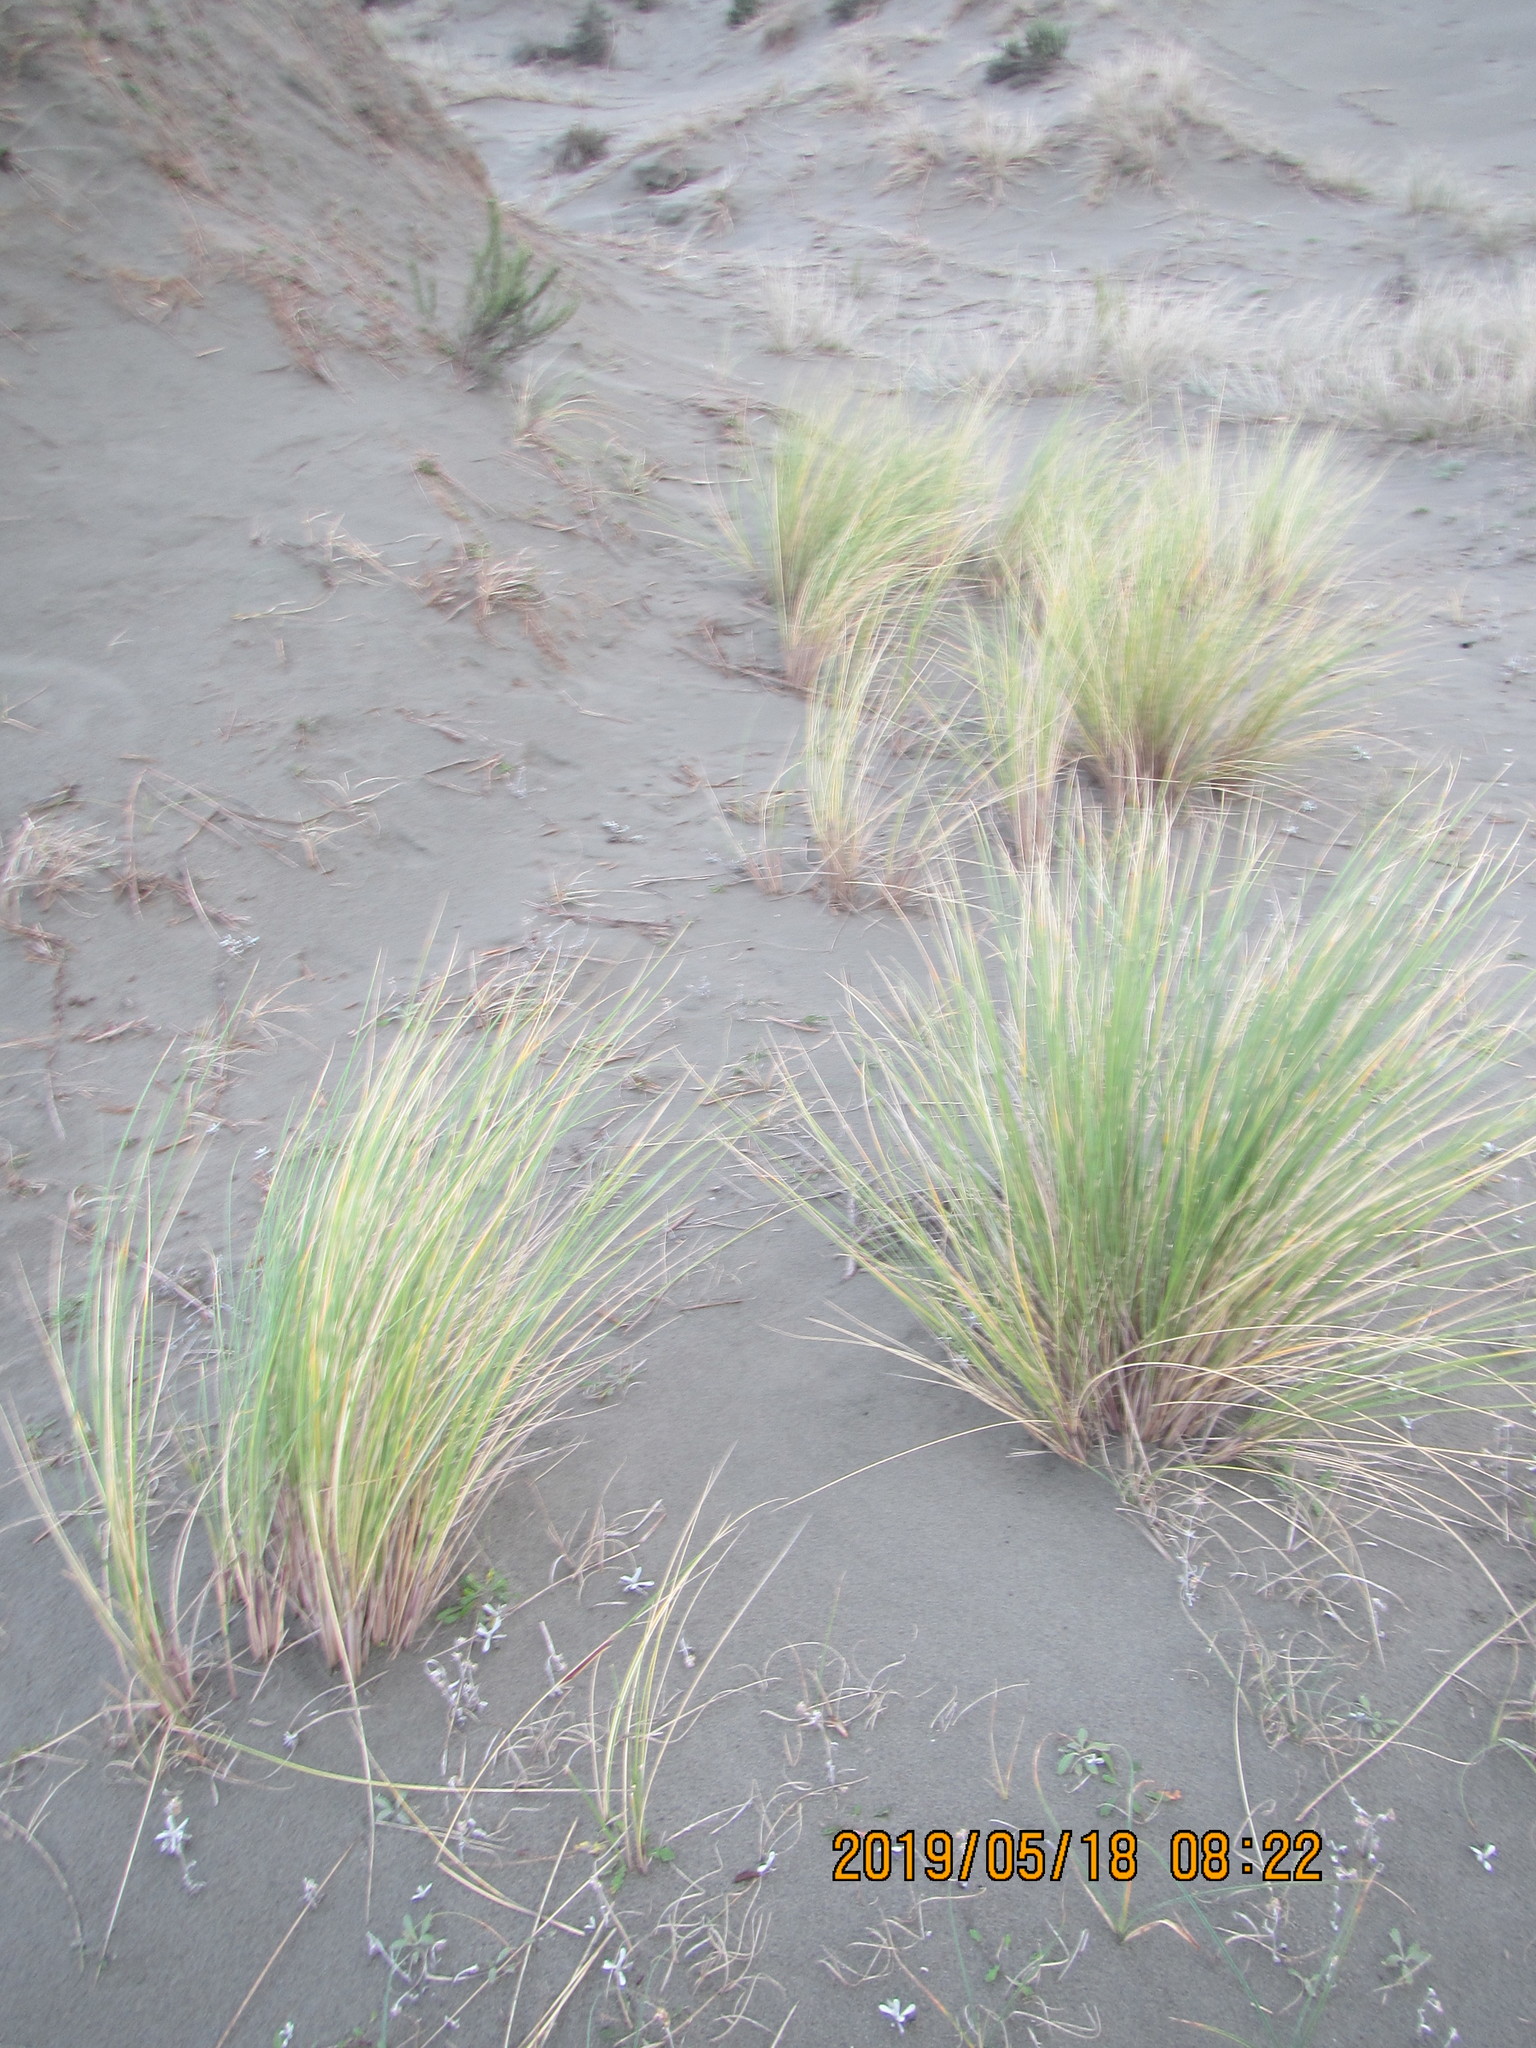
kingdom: Plantae
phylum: Tracheophyta
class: Liliopsida
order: Poales
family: Poaceae
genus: Calamagrostis
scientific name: Calamagrostis arenaria
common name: European beachgrass
